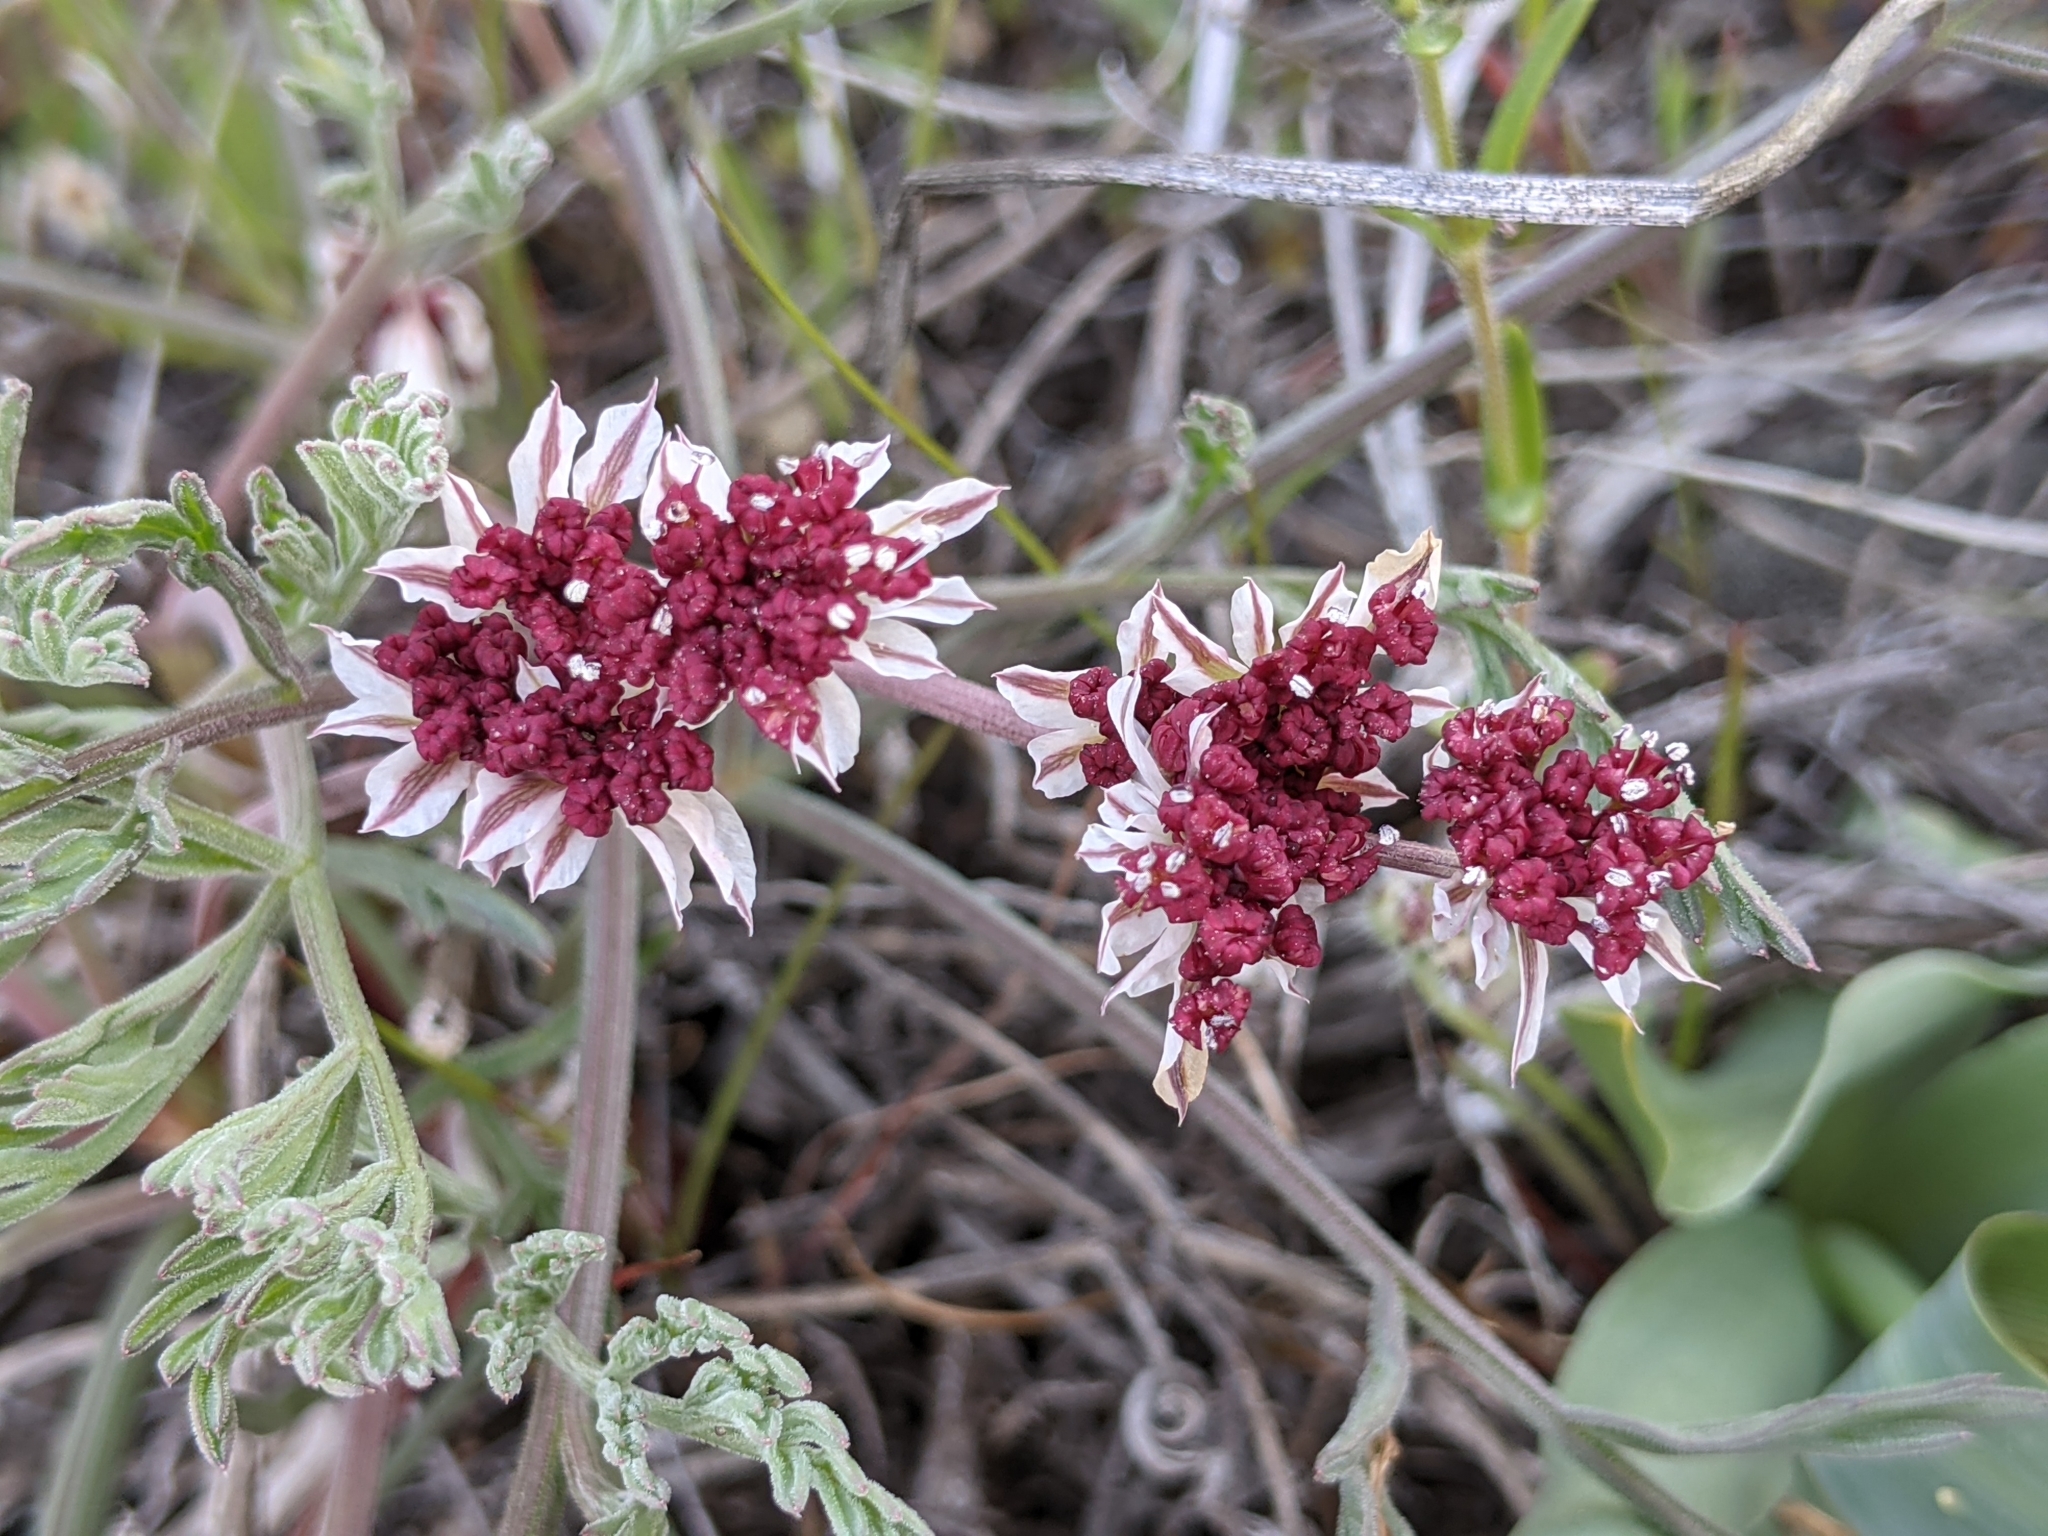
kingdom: Plantae
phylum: Tracheophyta
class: Magnoliopsida
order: Apiales
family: Apiaceae
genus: Lomatium
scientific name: Lomatium hooveri
